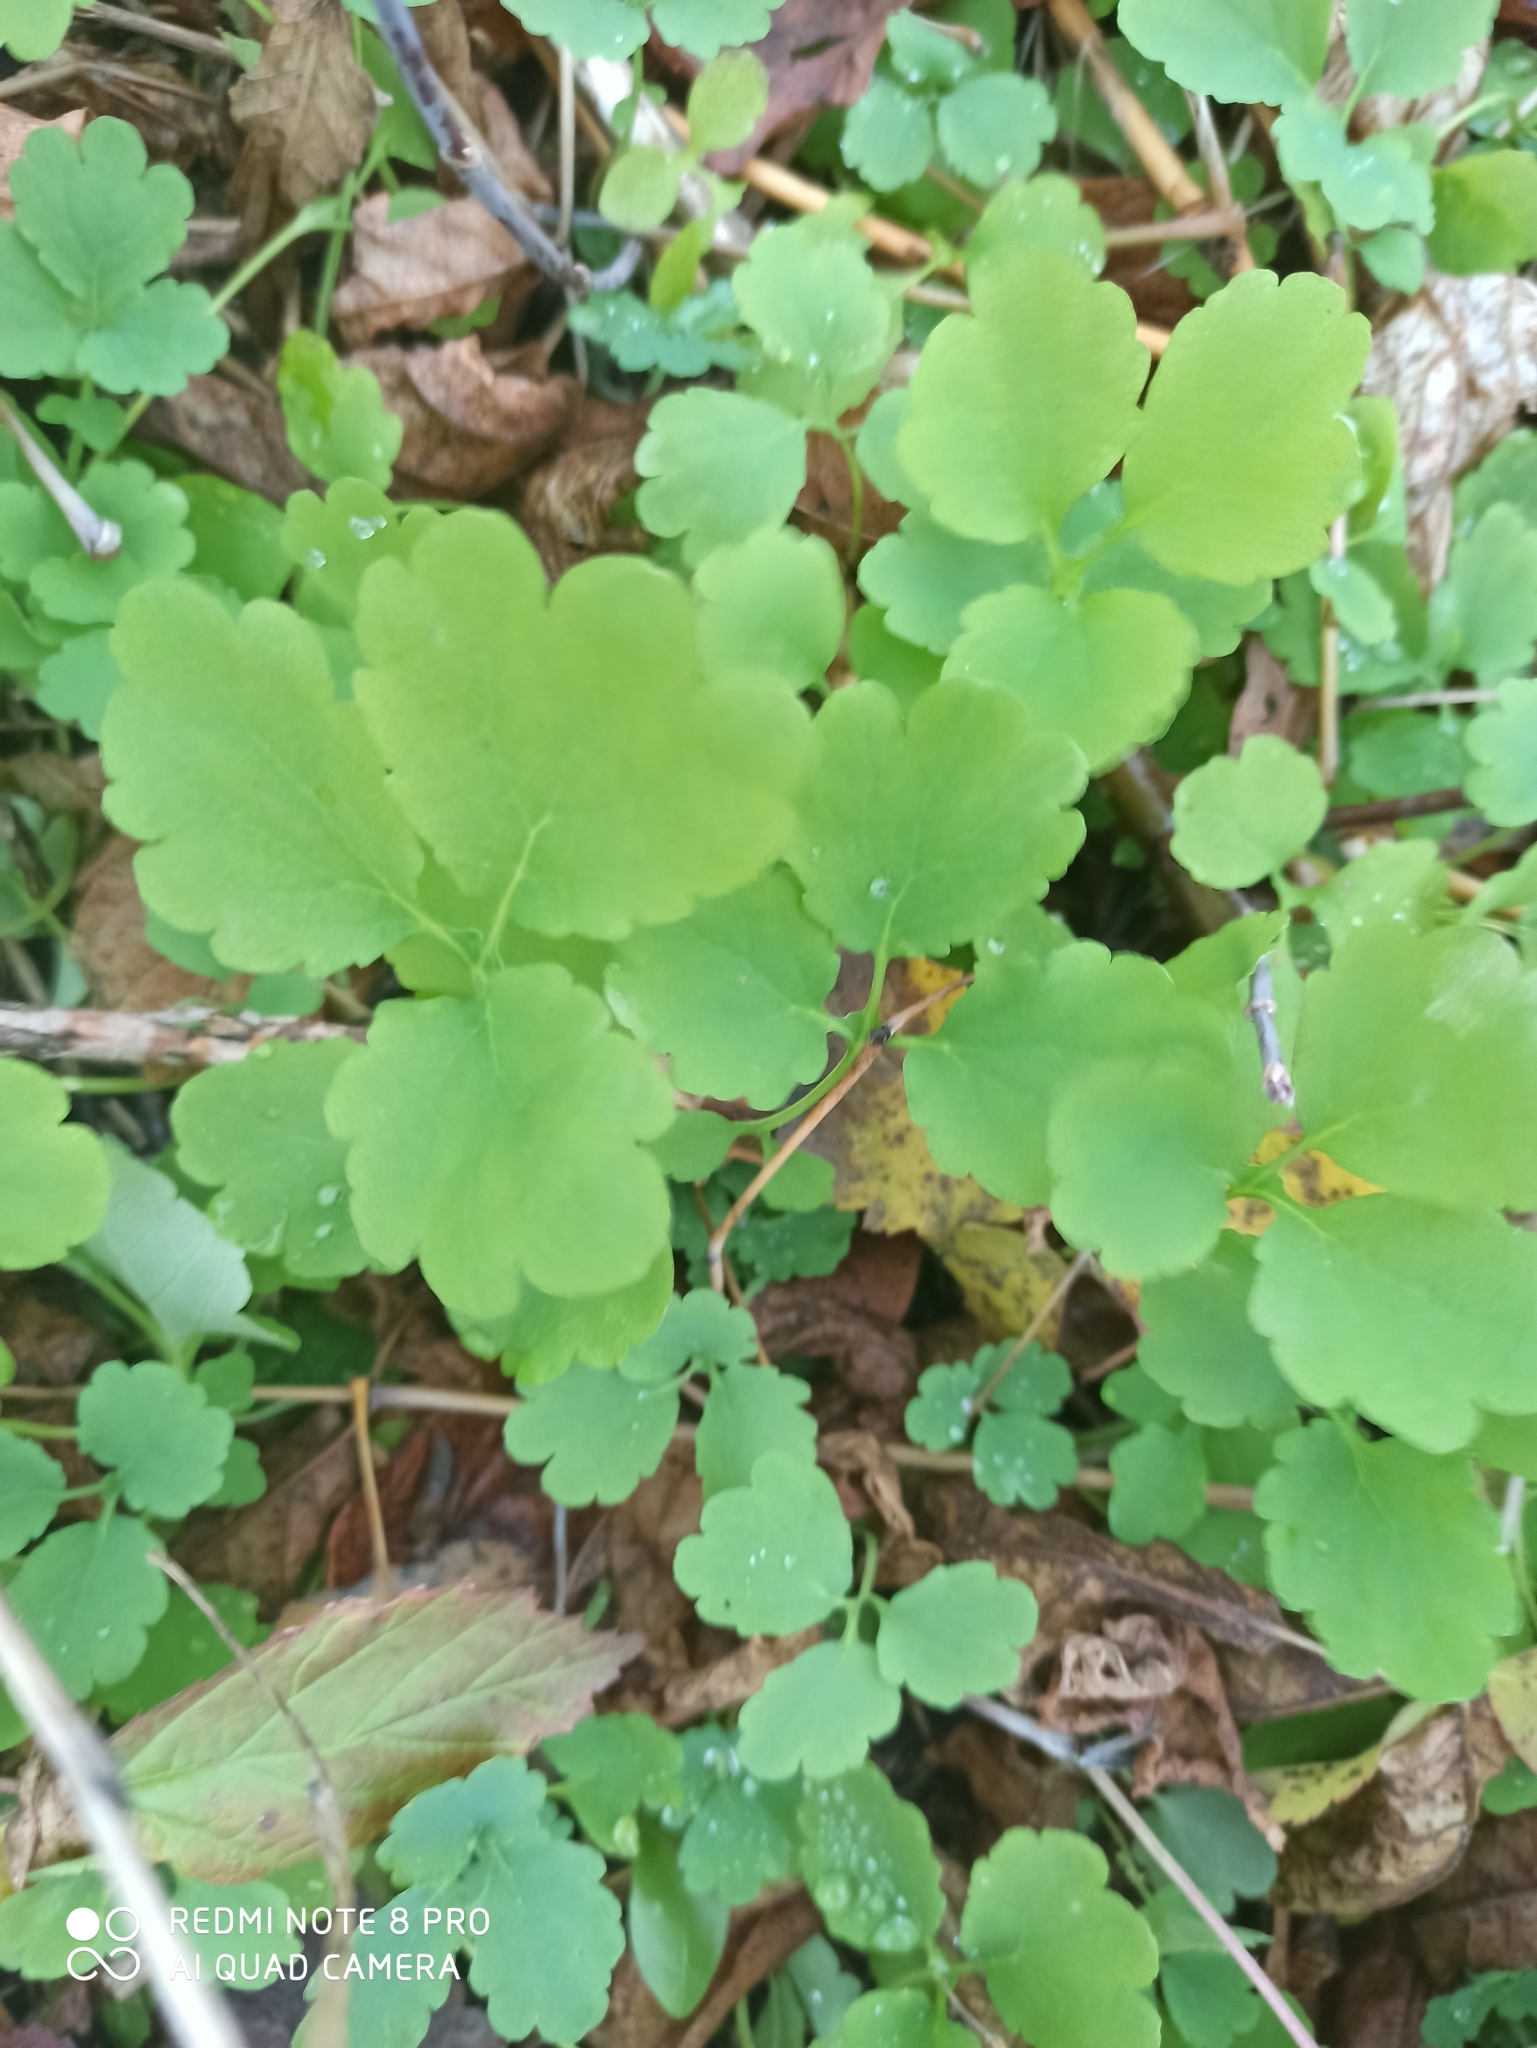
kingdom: Plantae
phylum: Tracheophyta
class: Magnoliopsida
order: Ranunculales
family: Papaveraceae
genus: Chelidonium
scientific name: Chelidonium majus
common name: Greater celandine
